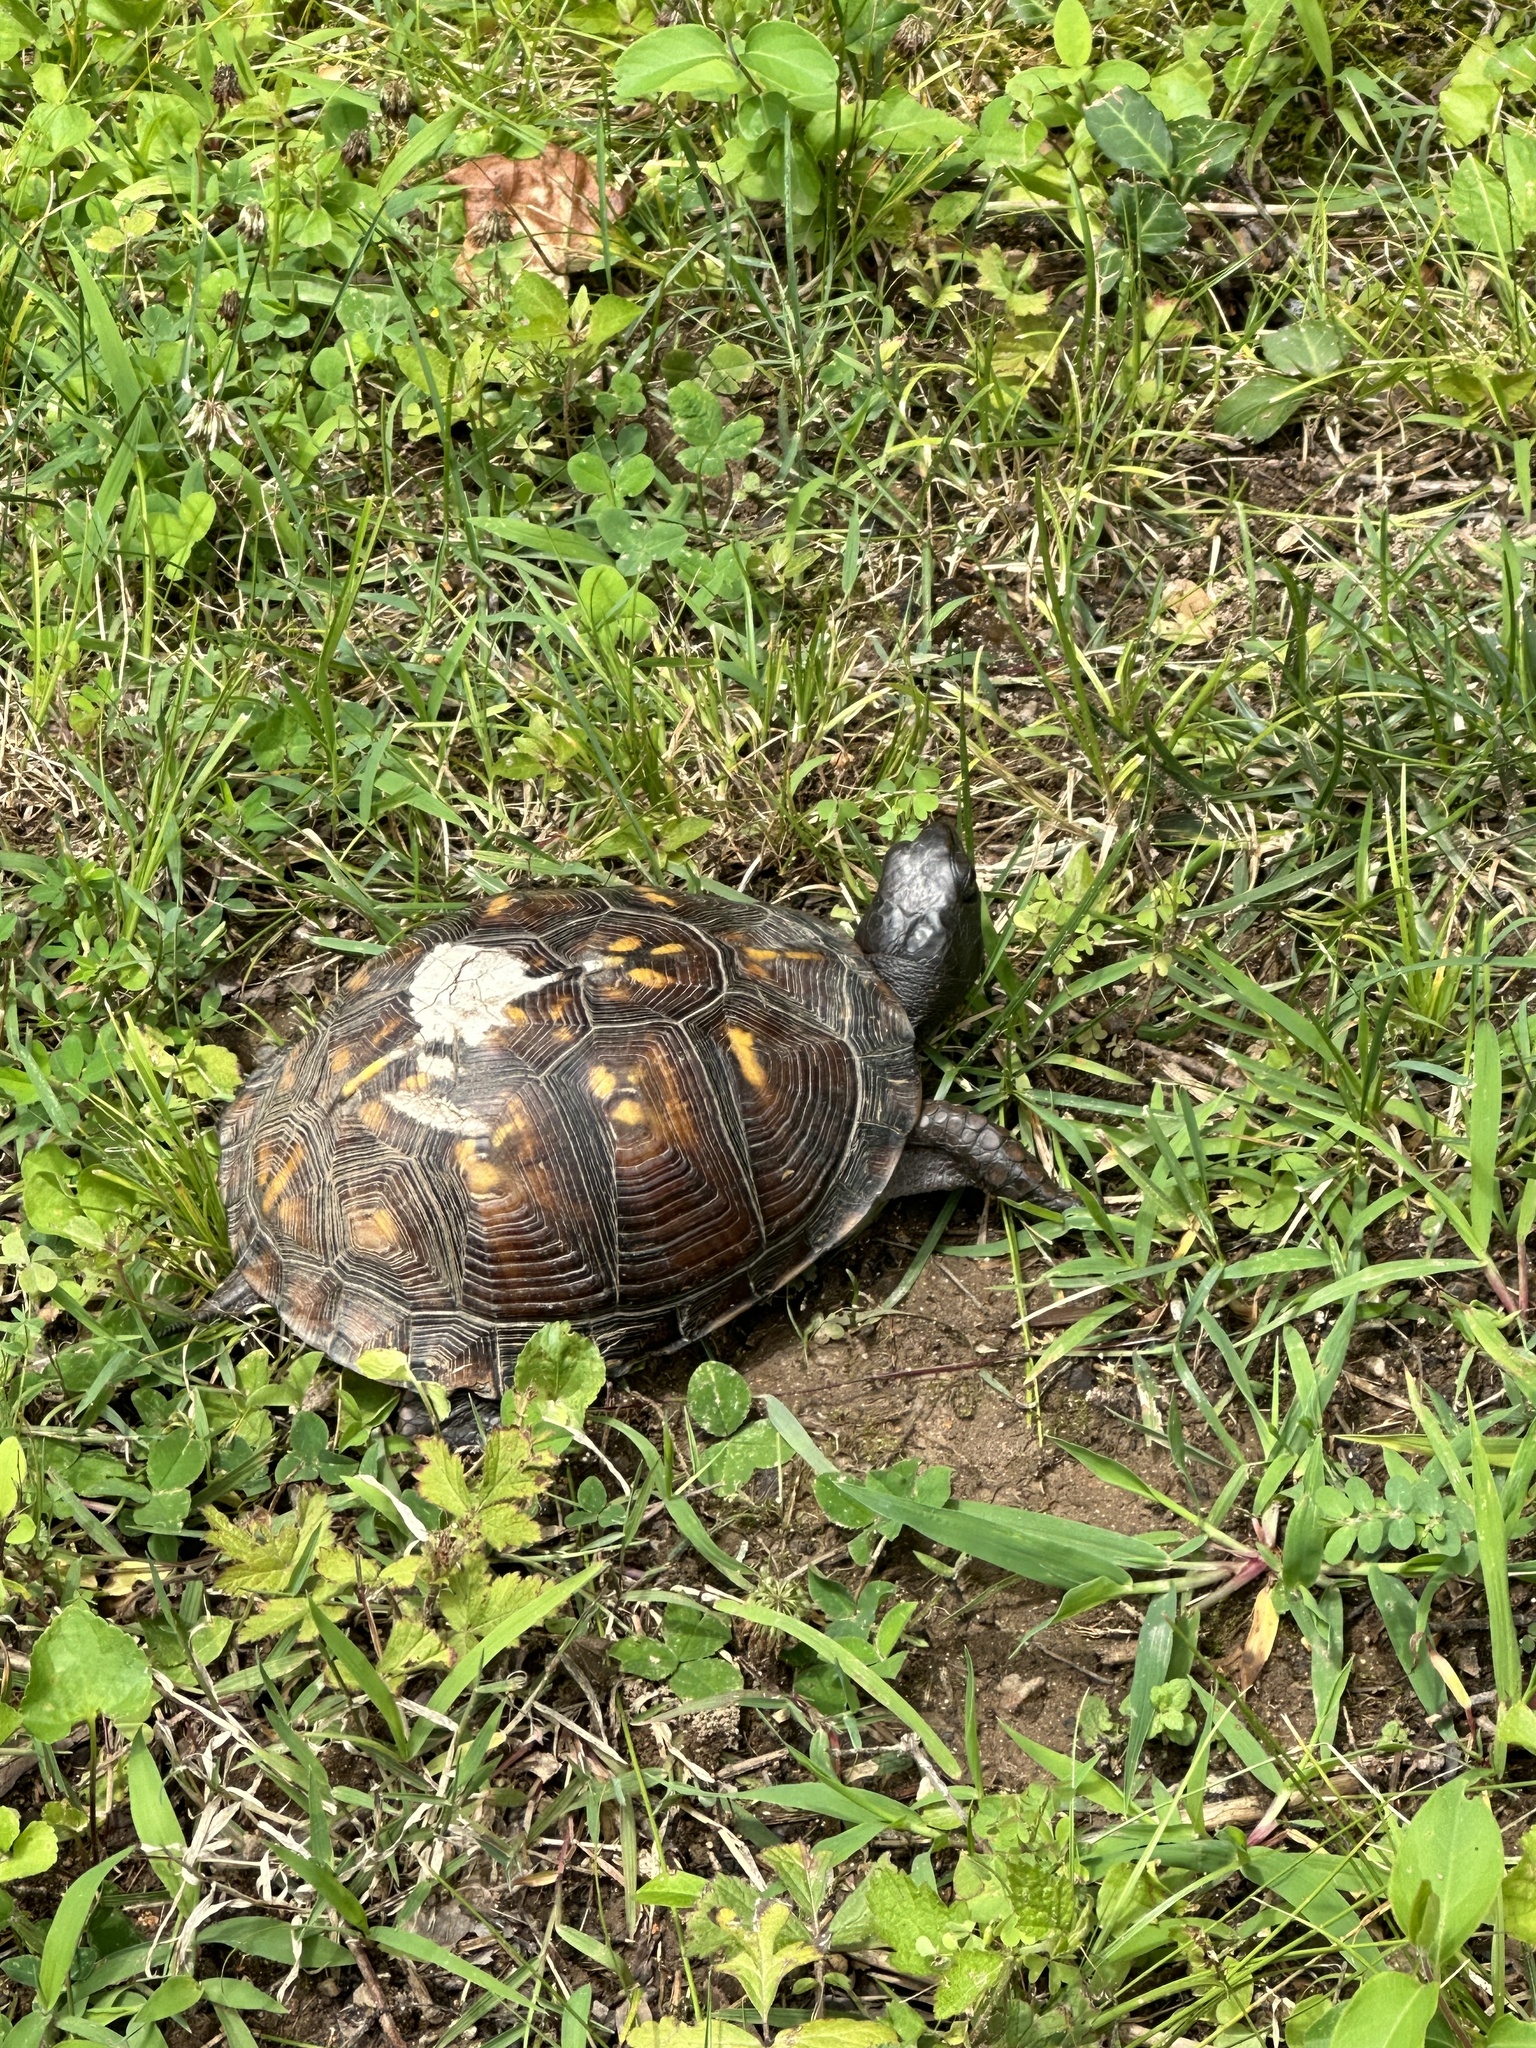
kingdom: Animalia
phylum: Chordata
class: Testudines
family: Emydidae
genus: Terrapene
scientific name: Terrapene carolina
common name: Common box turtle
